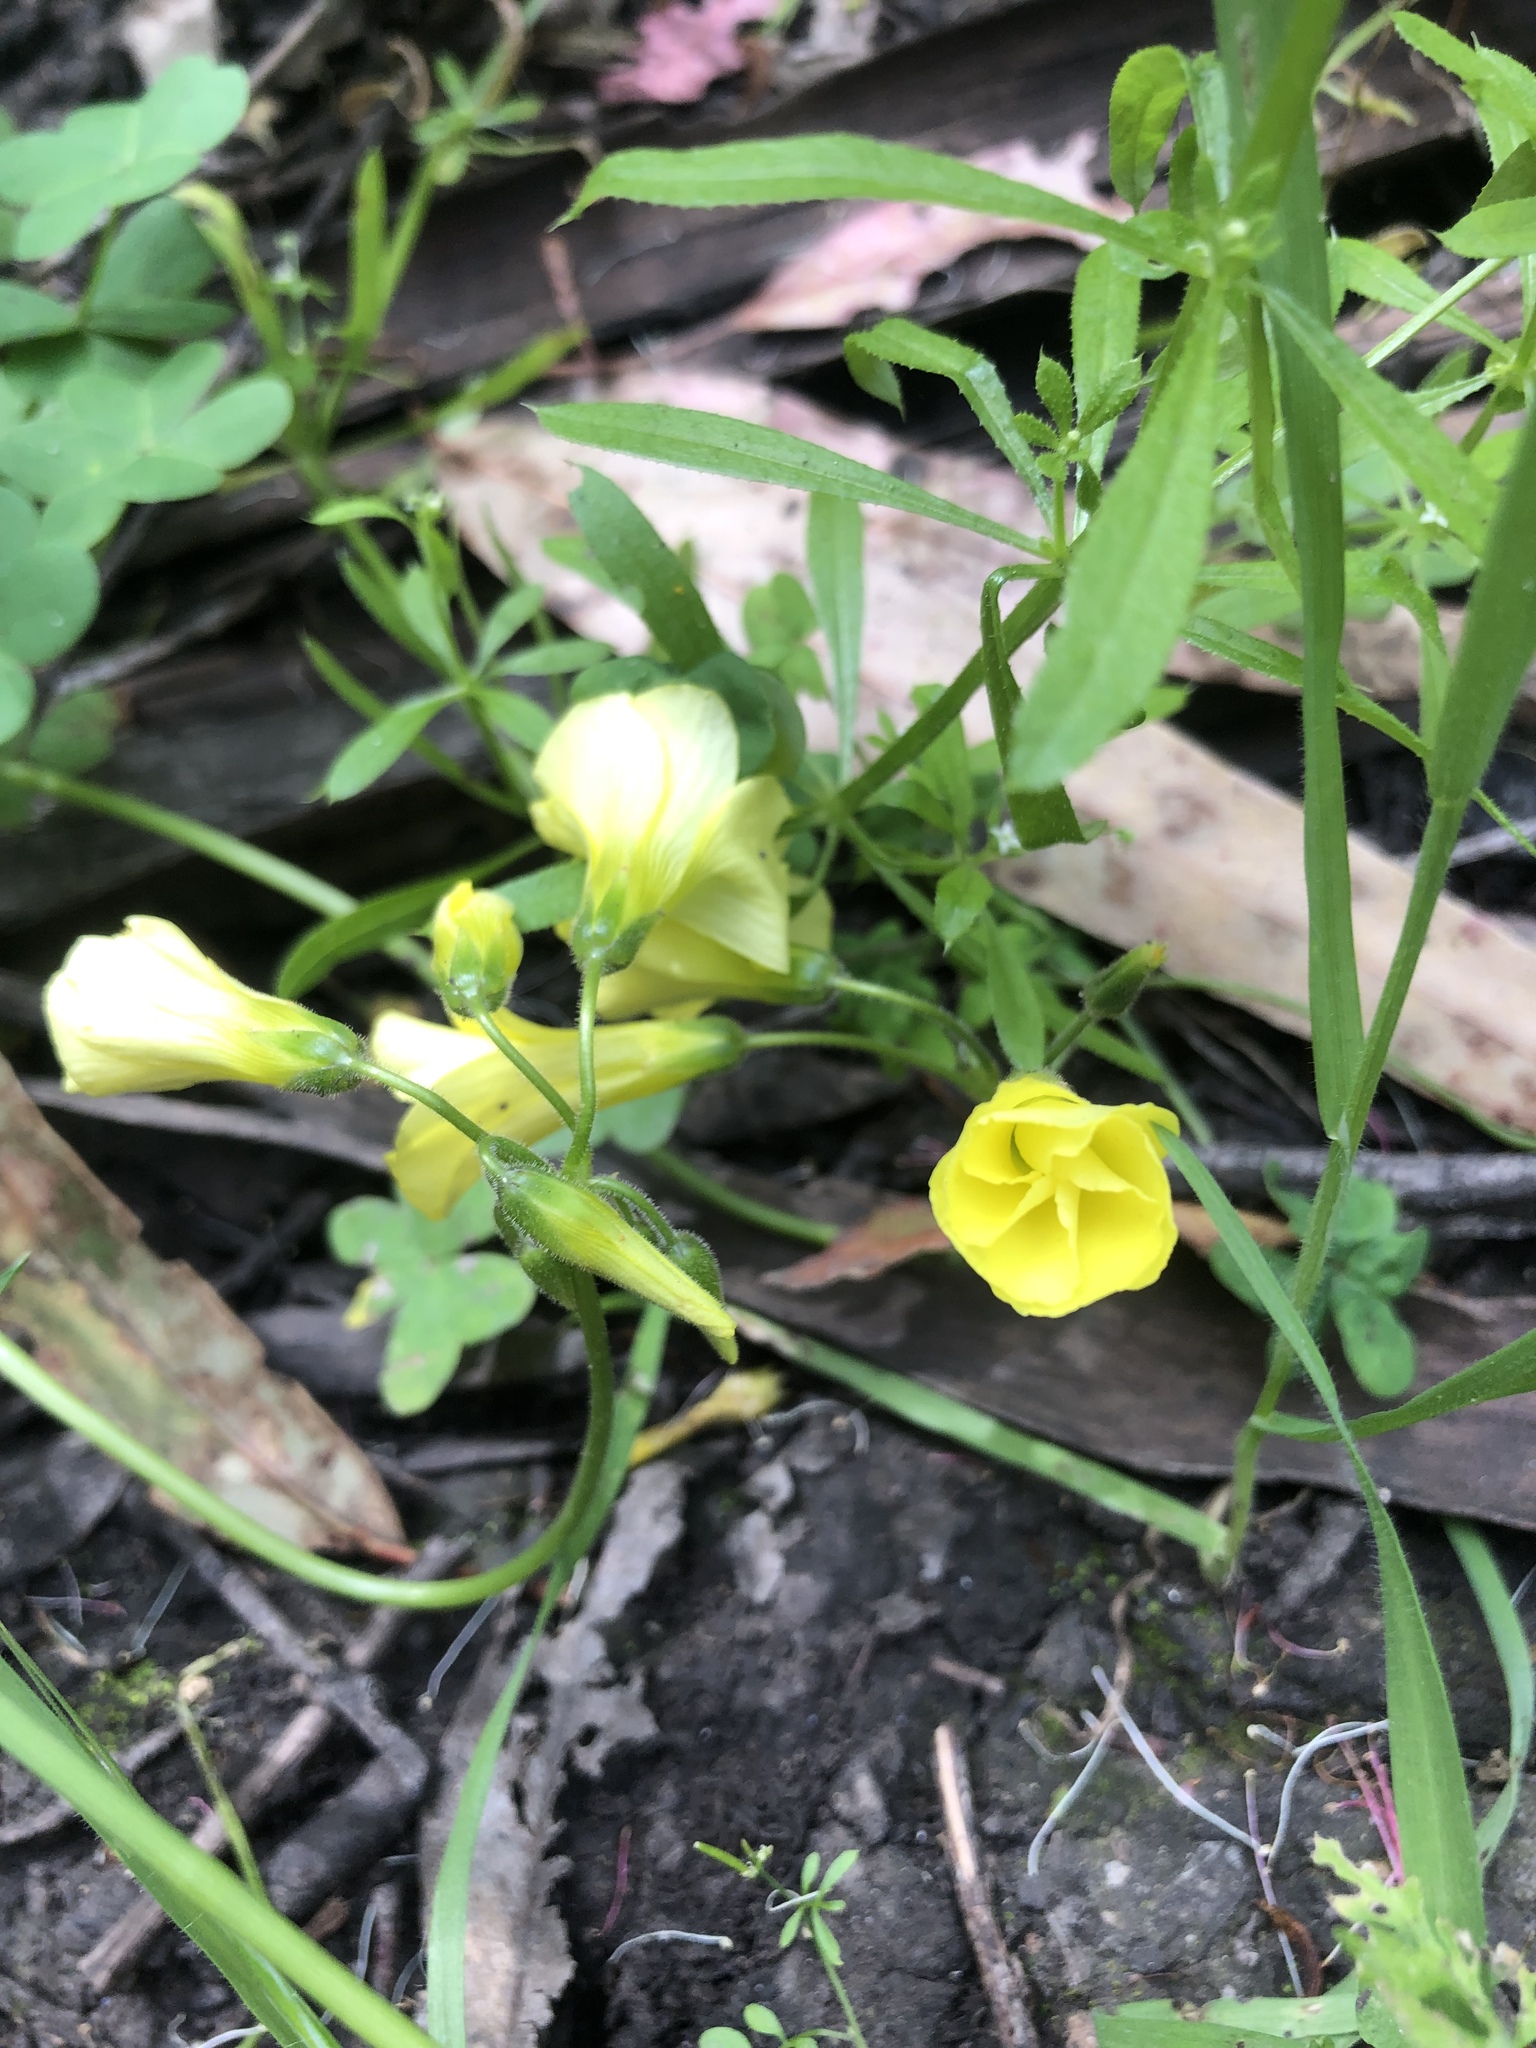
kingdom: Plantae
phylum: Tracheophyta
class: Magnoliopsida
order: Oxalidales
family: Oxalidaceae
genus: Oxalis
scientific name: Oxalis pes-caprae
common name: Bermuda-buttercup
